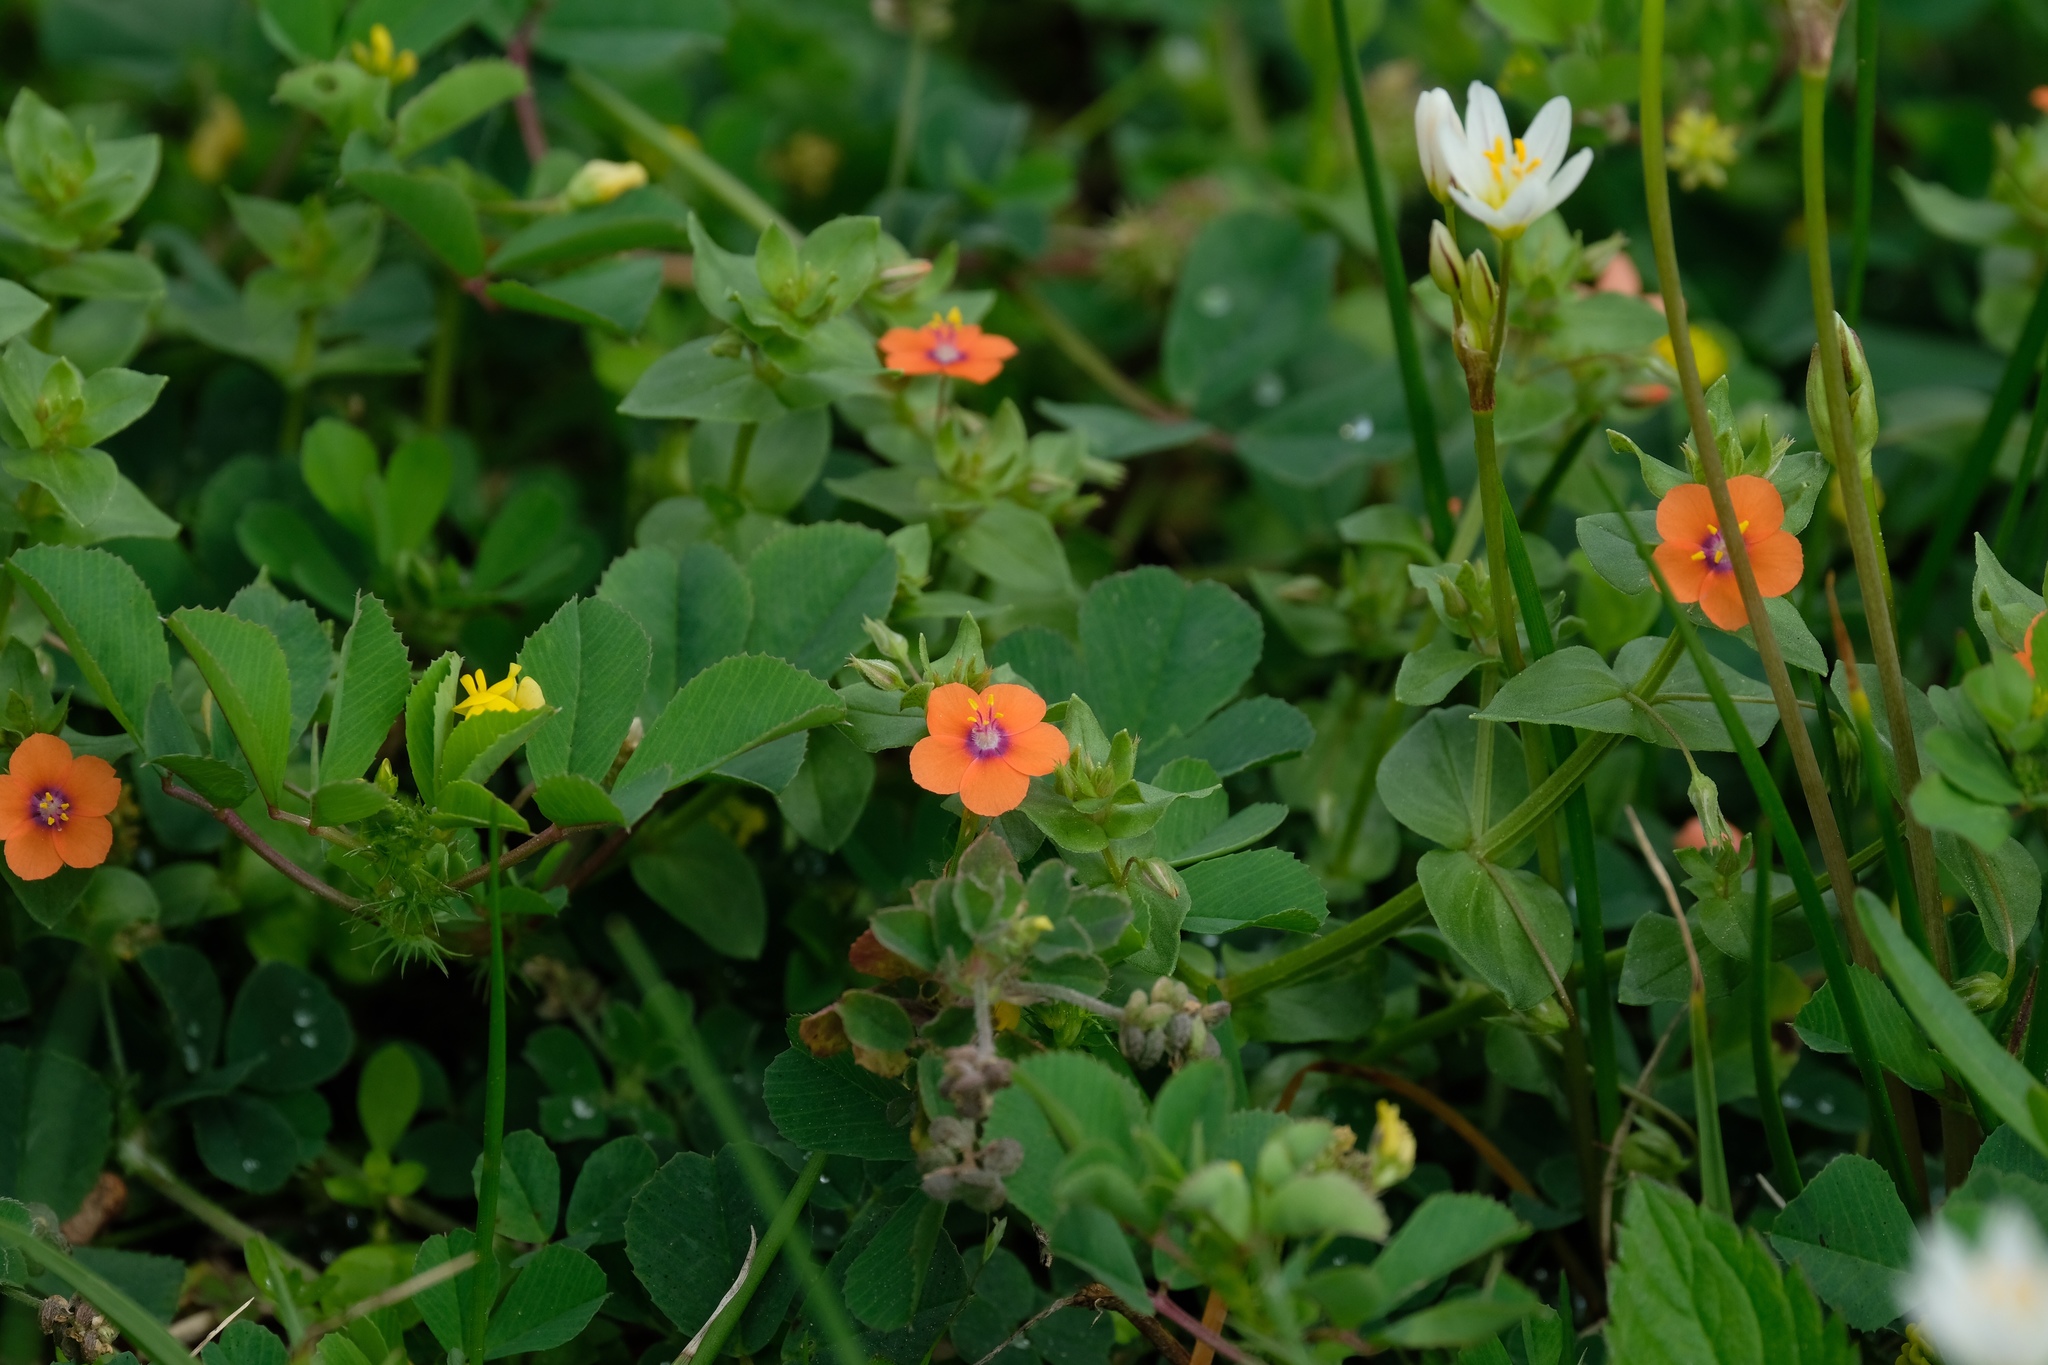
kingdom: Plantae
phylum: Tracheophyta
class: Magnoliopsida
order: Ericales
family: Primulaceae
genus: Lysimachia
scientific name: Lysimachia arvensis
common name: Scarlet pimpernel
